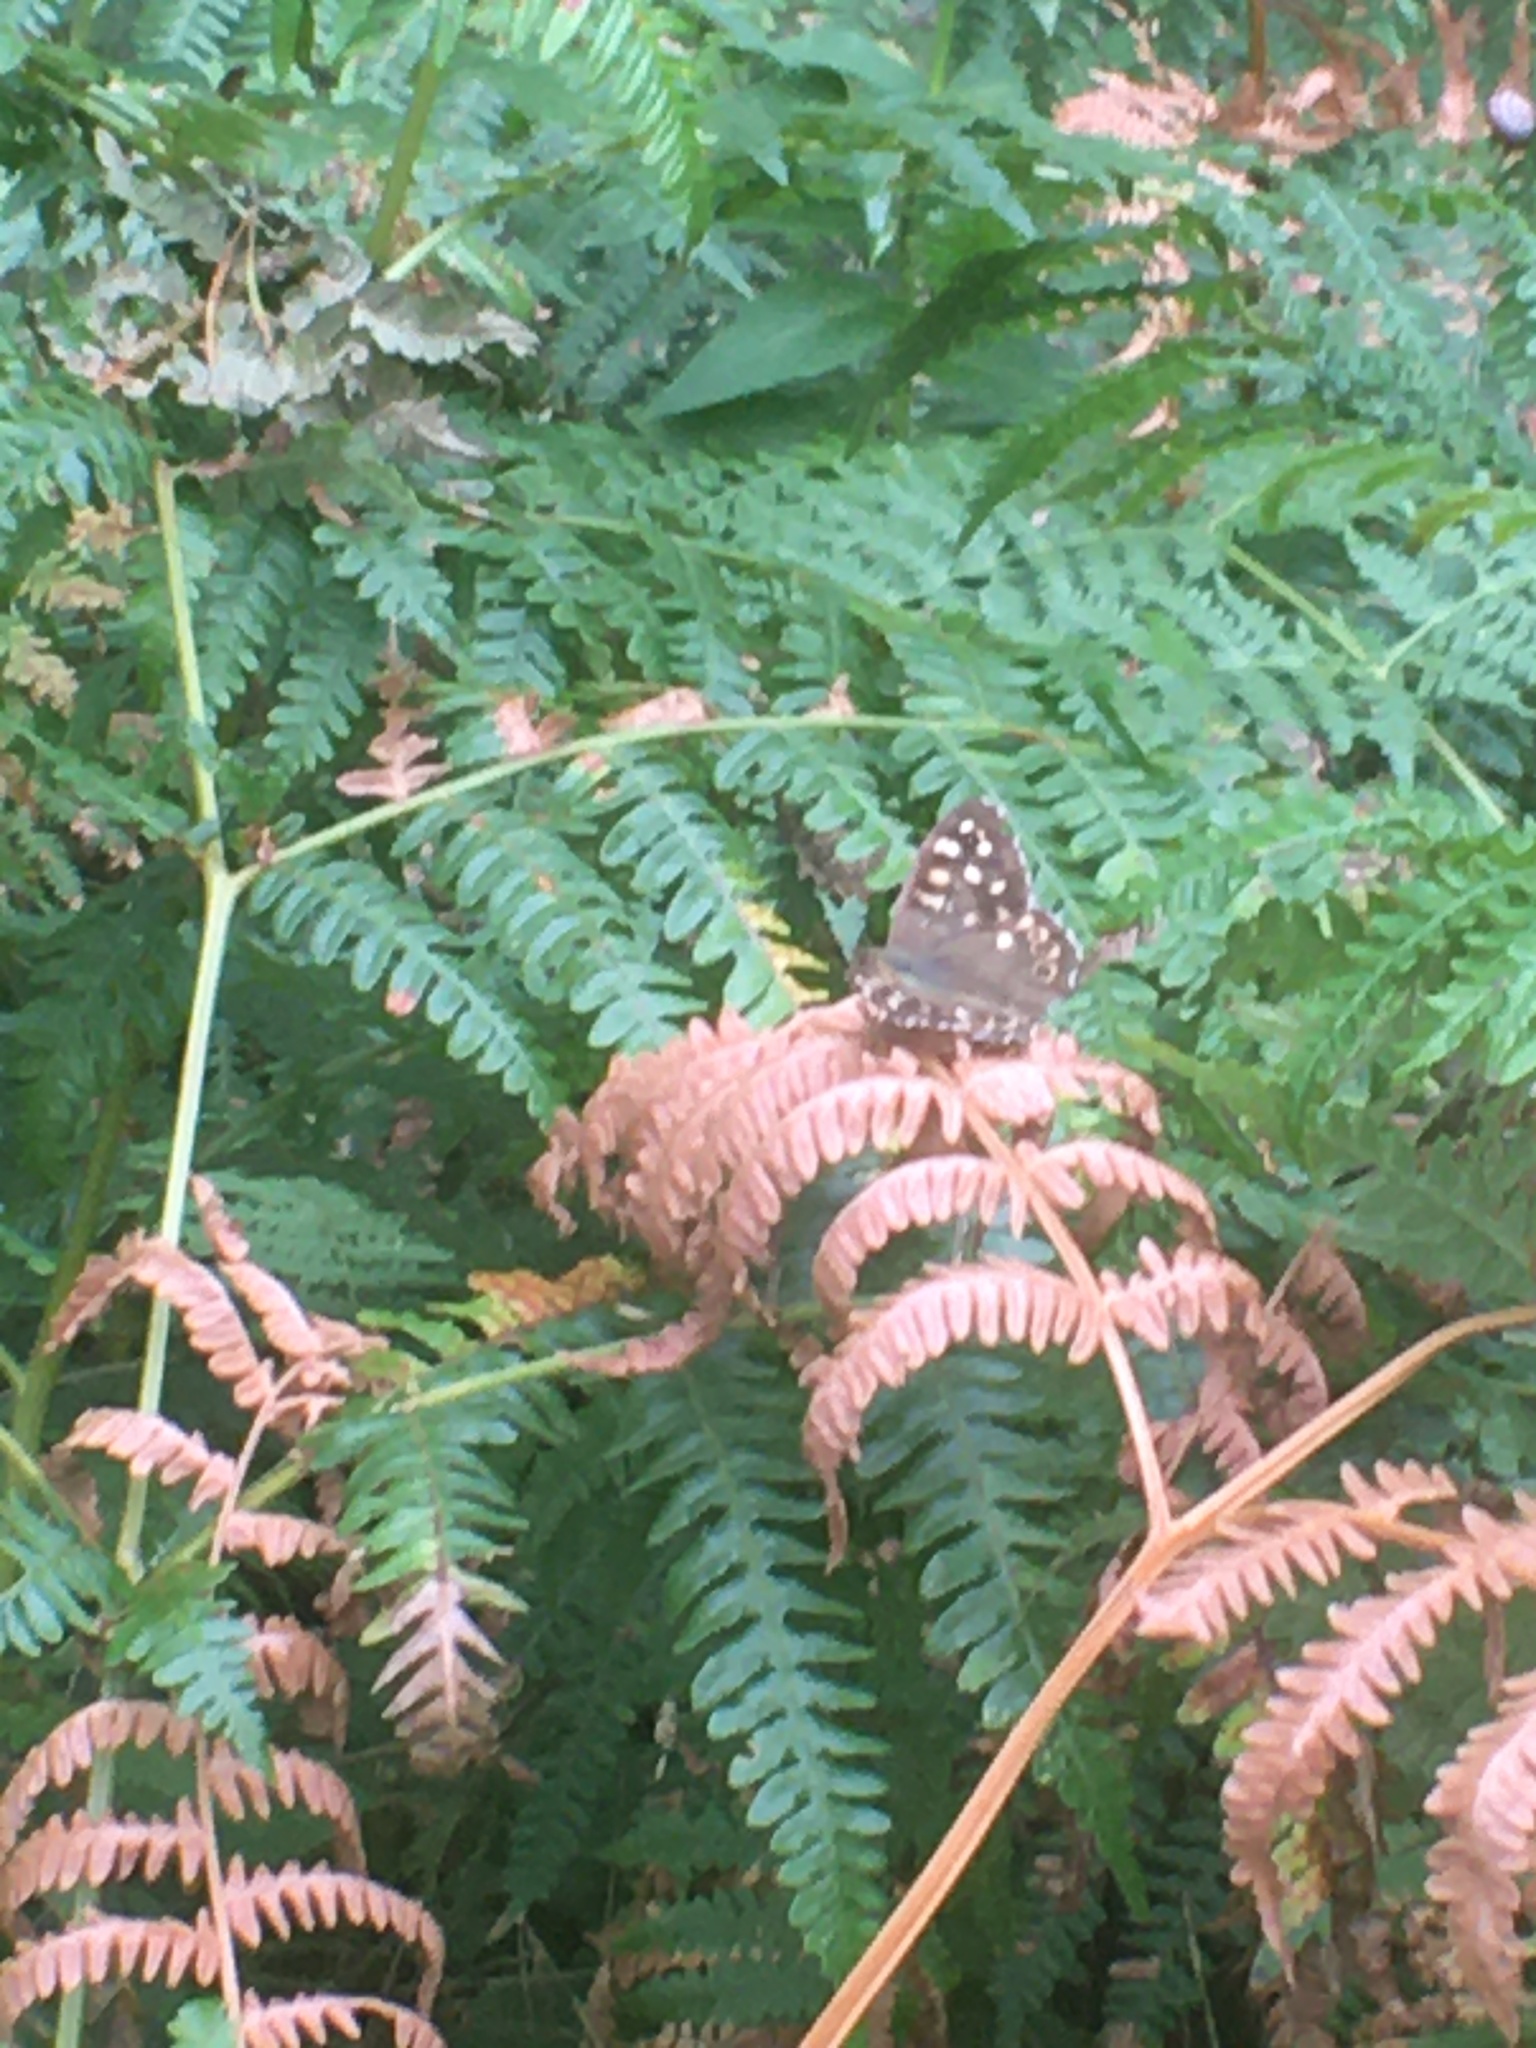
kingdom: Animalia
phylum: Arthropoda
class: Insecta
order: Lepidoptera
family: Nymphalidae
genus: Pararge
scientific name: Pararge aegeria
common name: Speckled wood
